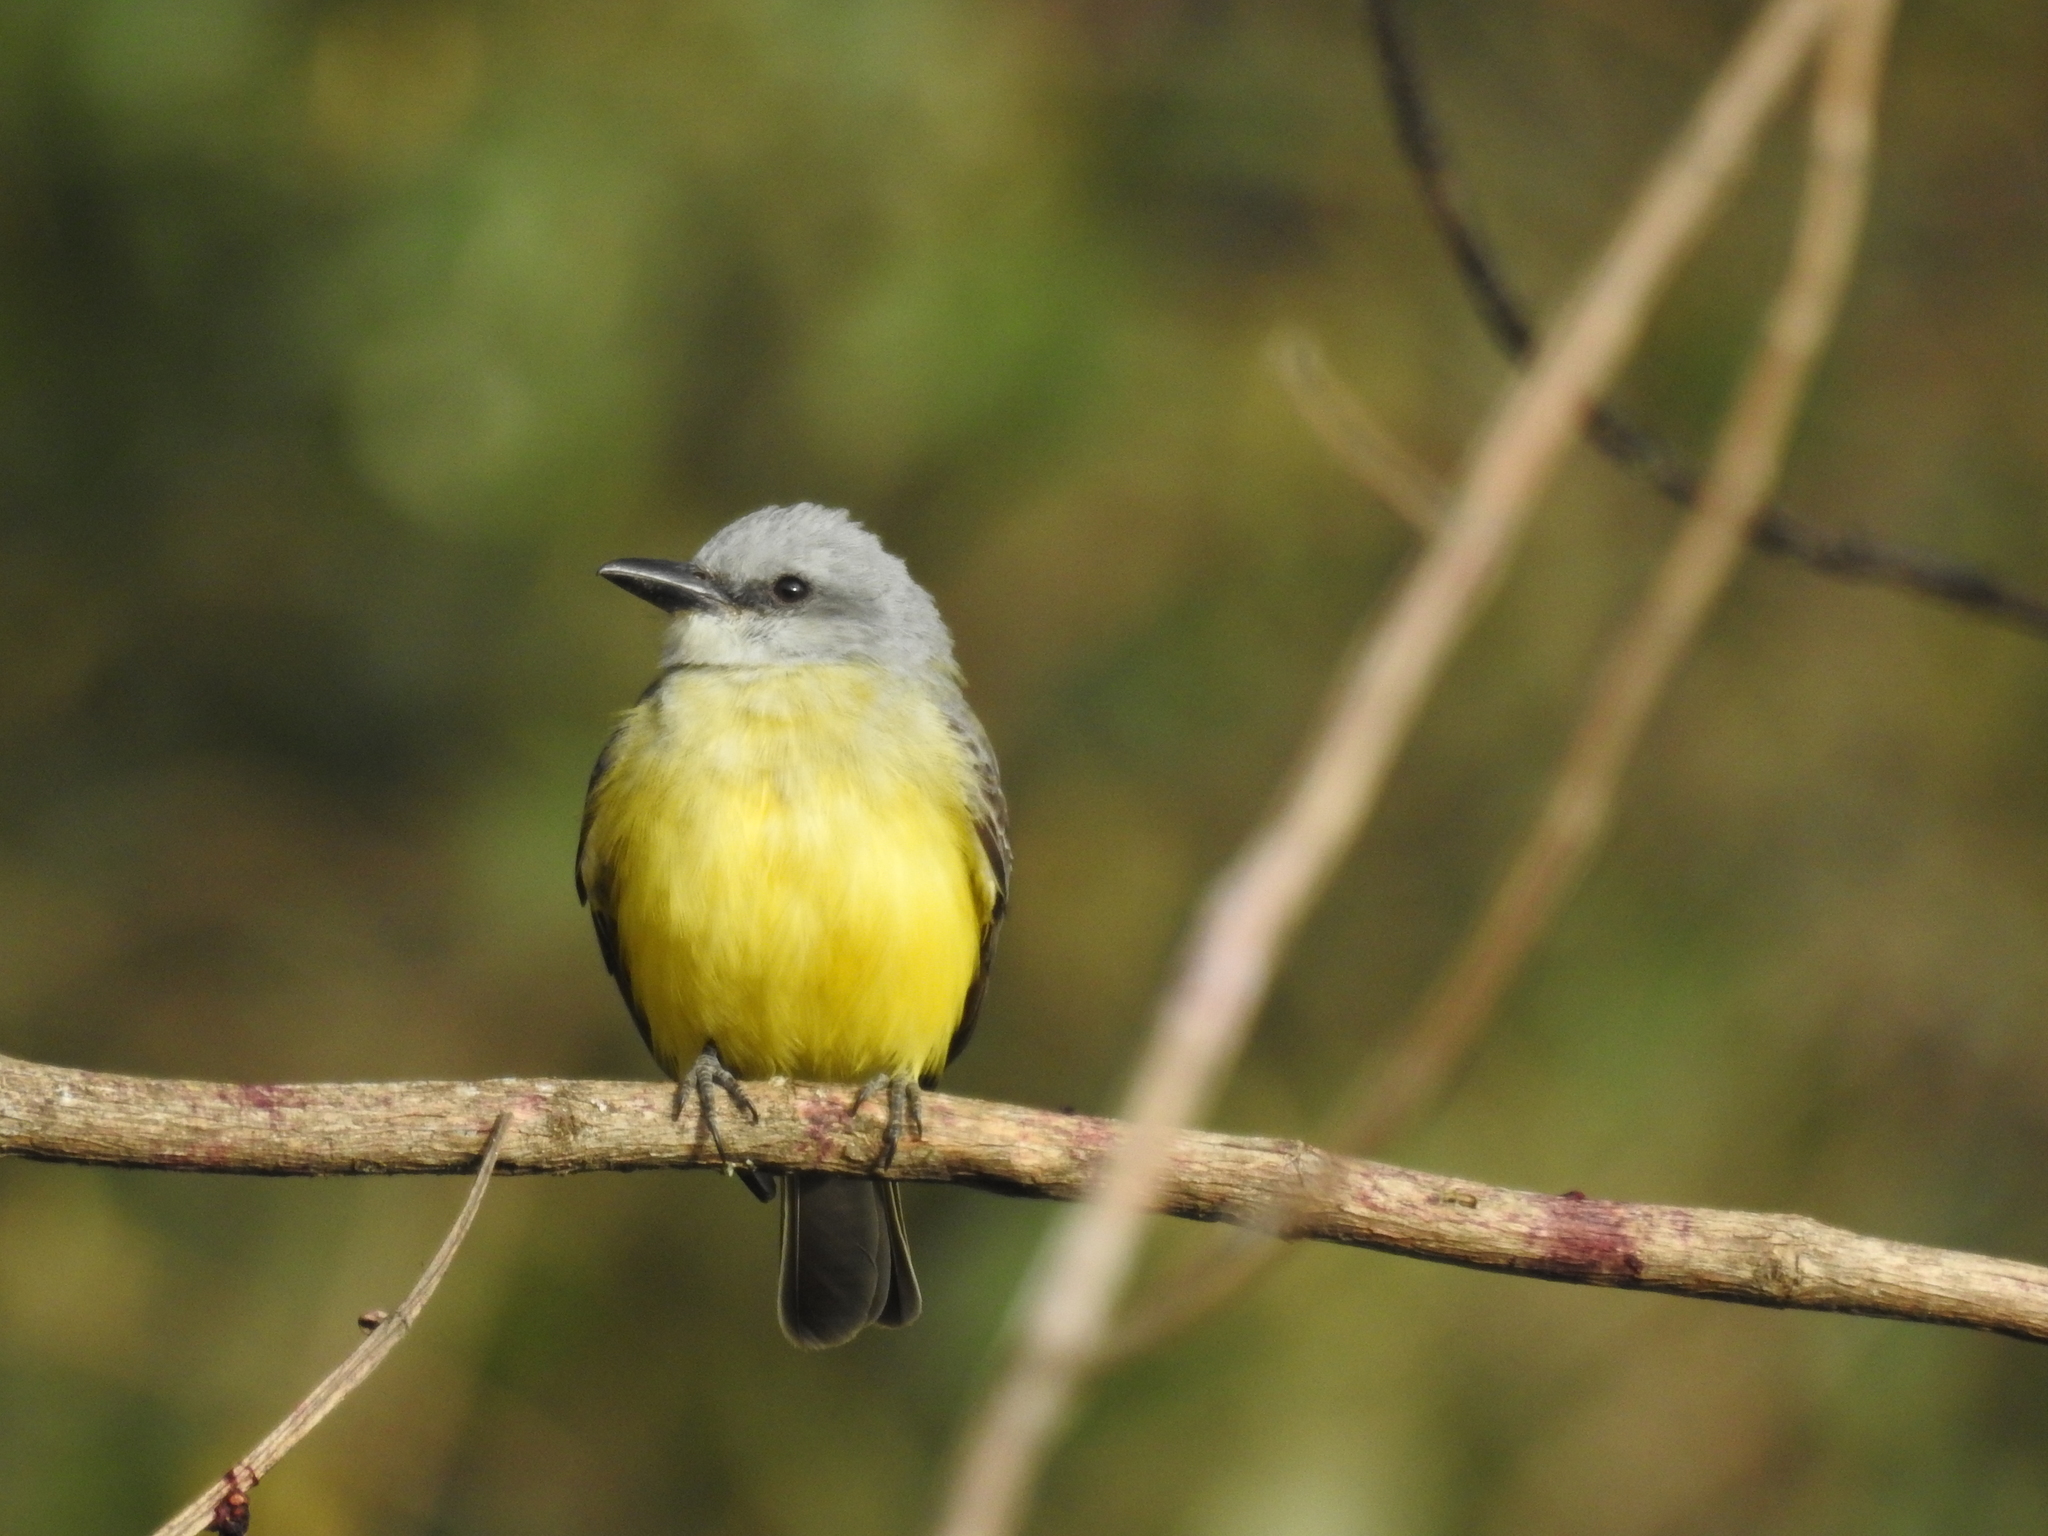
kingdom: Animalia
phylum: Chordata
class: Aves
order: Passeriformes
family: Tyrannidae
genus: Tyrannus
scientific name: Tyrannus melancholicus
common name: Tropical kingbird
